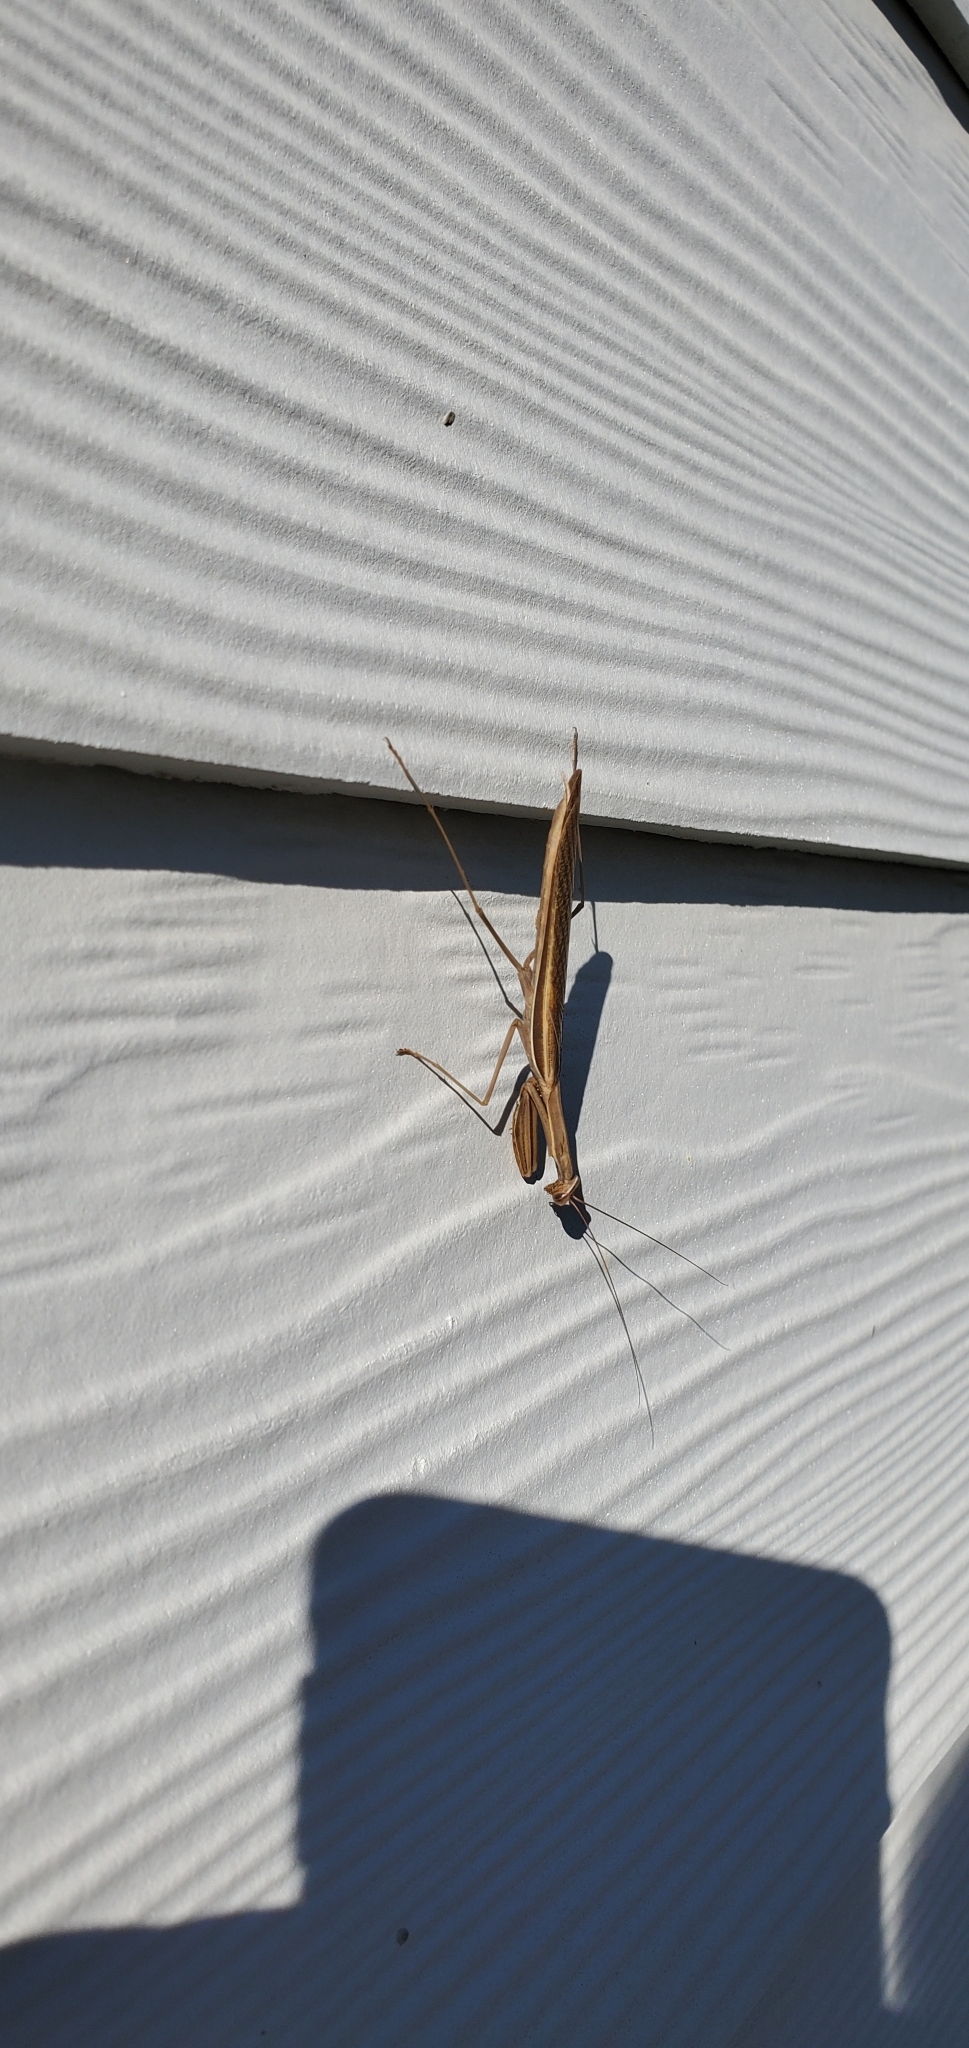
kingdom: Animalia
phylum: Arthropoda
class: Insecta
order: Mantodea
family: Mantidae
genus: Mantis
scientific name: Mantis religiosa
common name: Praying mantis
